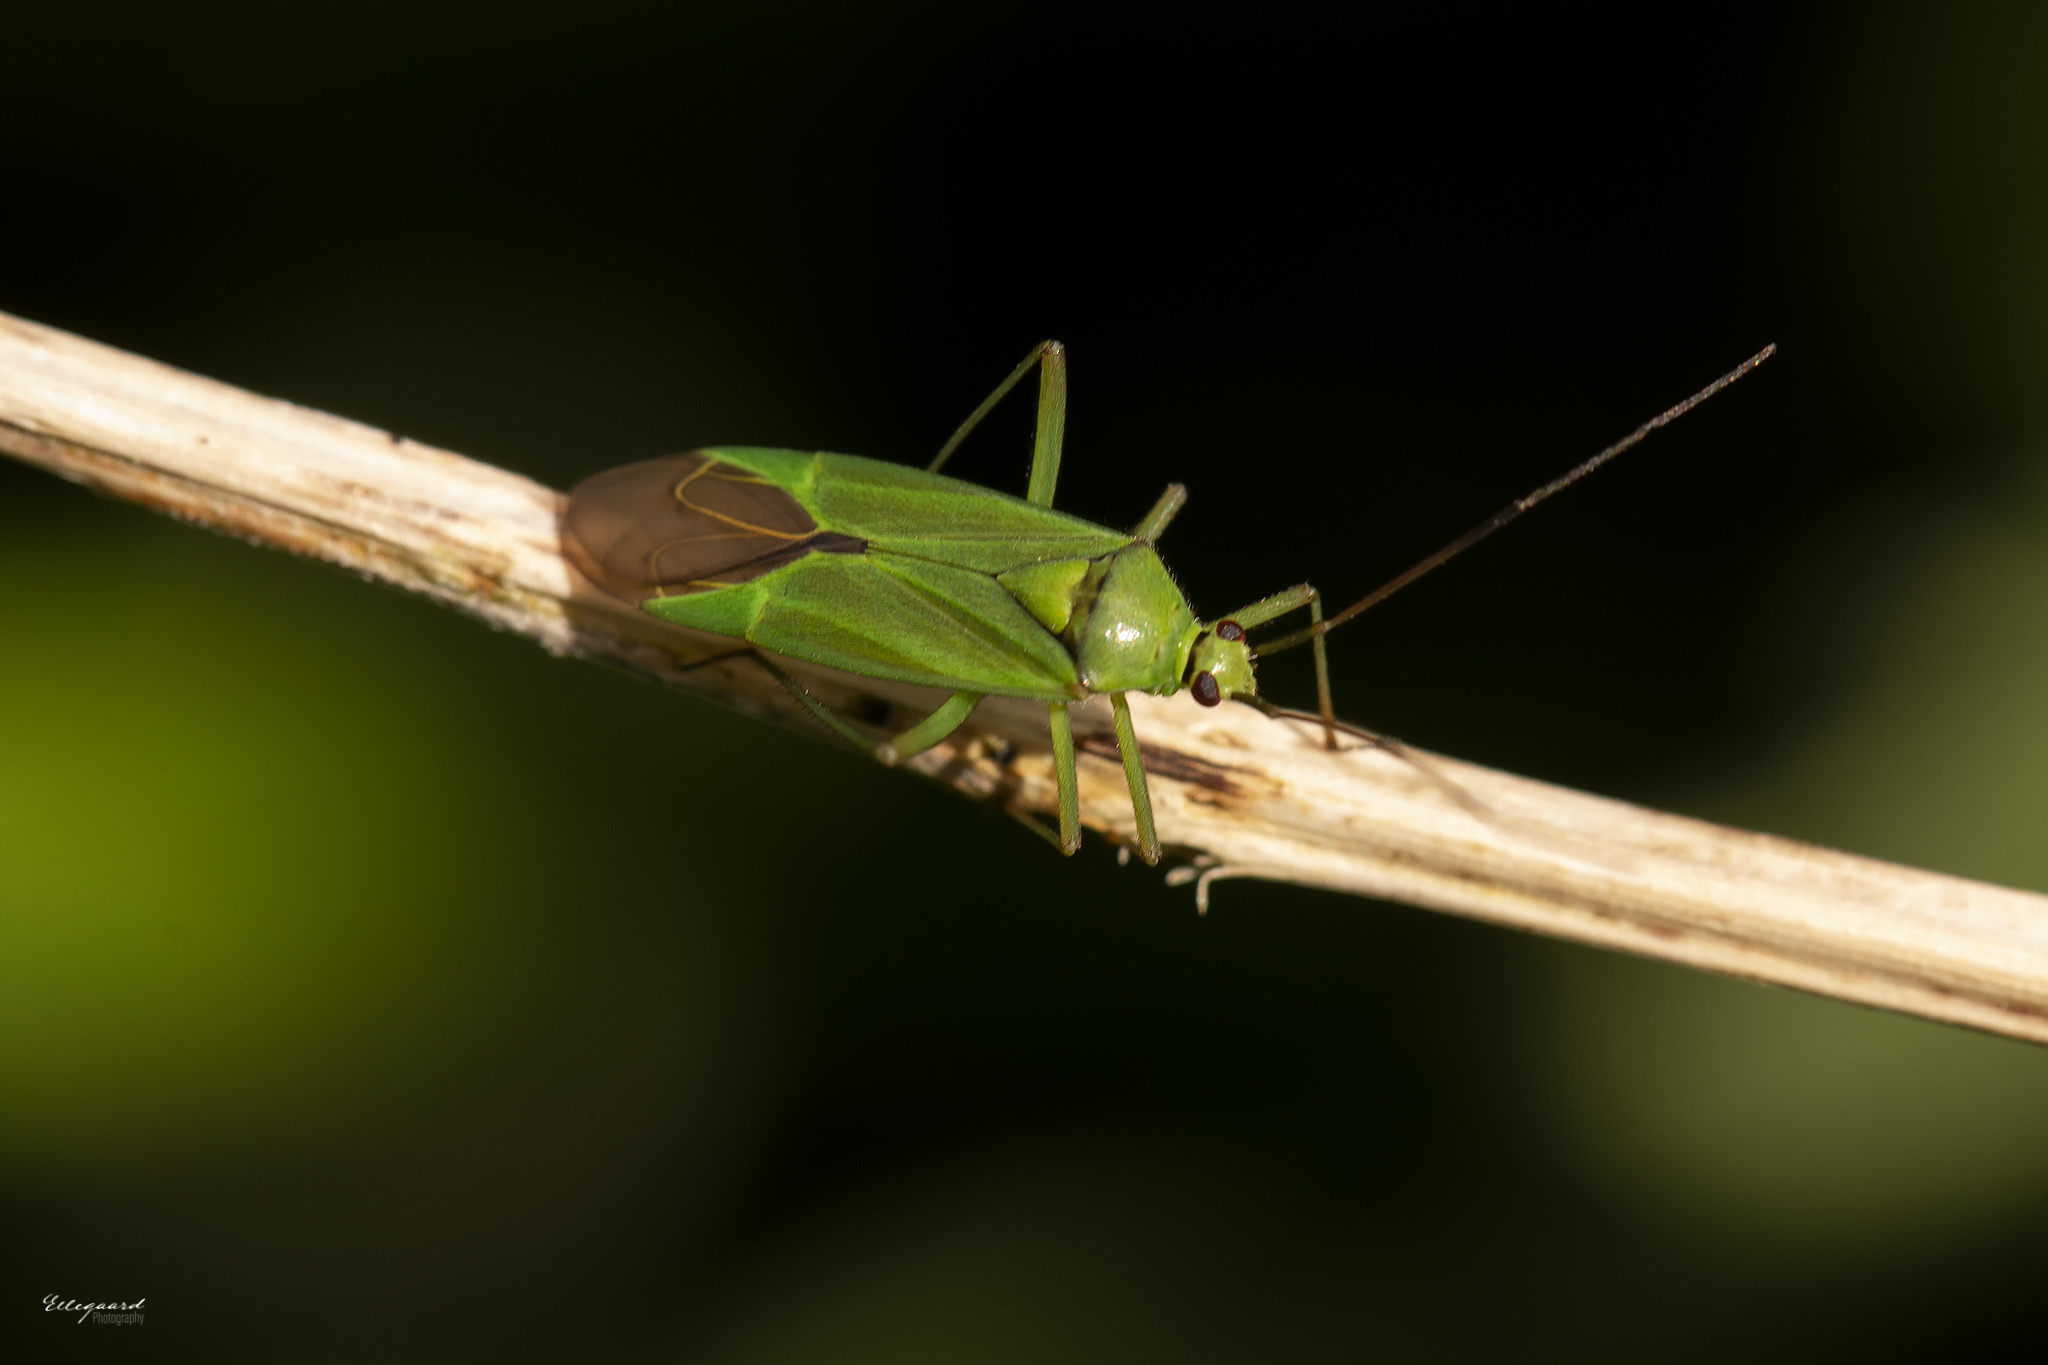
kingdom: Animalia
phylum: Arthropoda
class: Insecta
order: Hemiptera
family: Miridae
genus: Calocoris
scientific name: Calocoris alpestris
